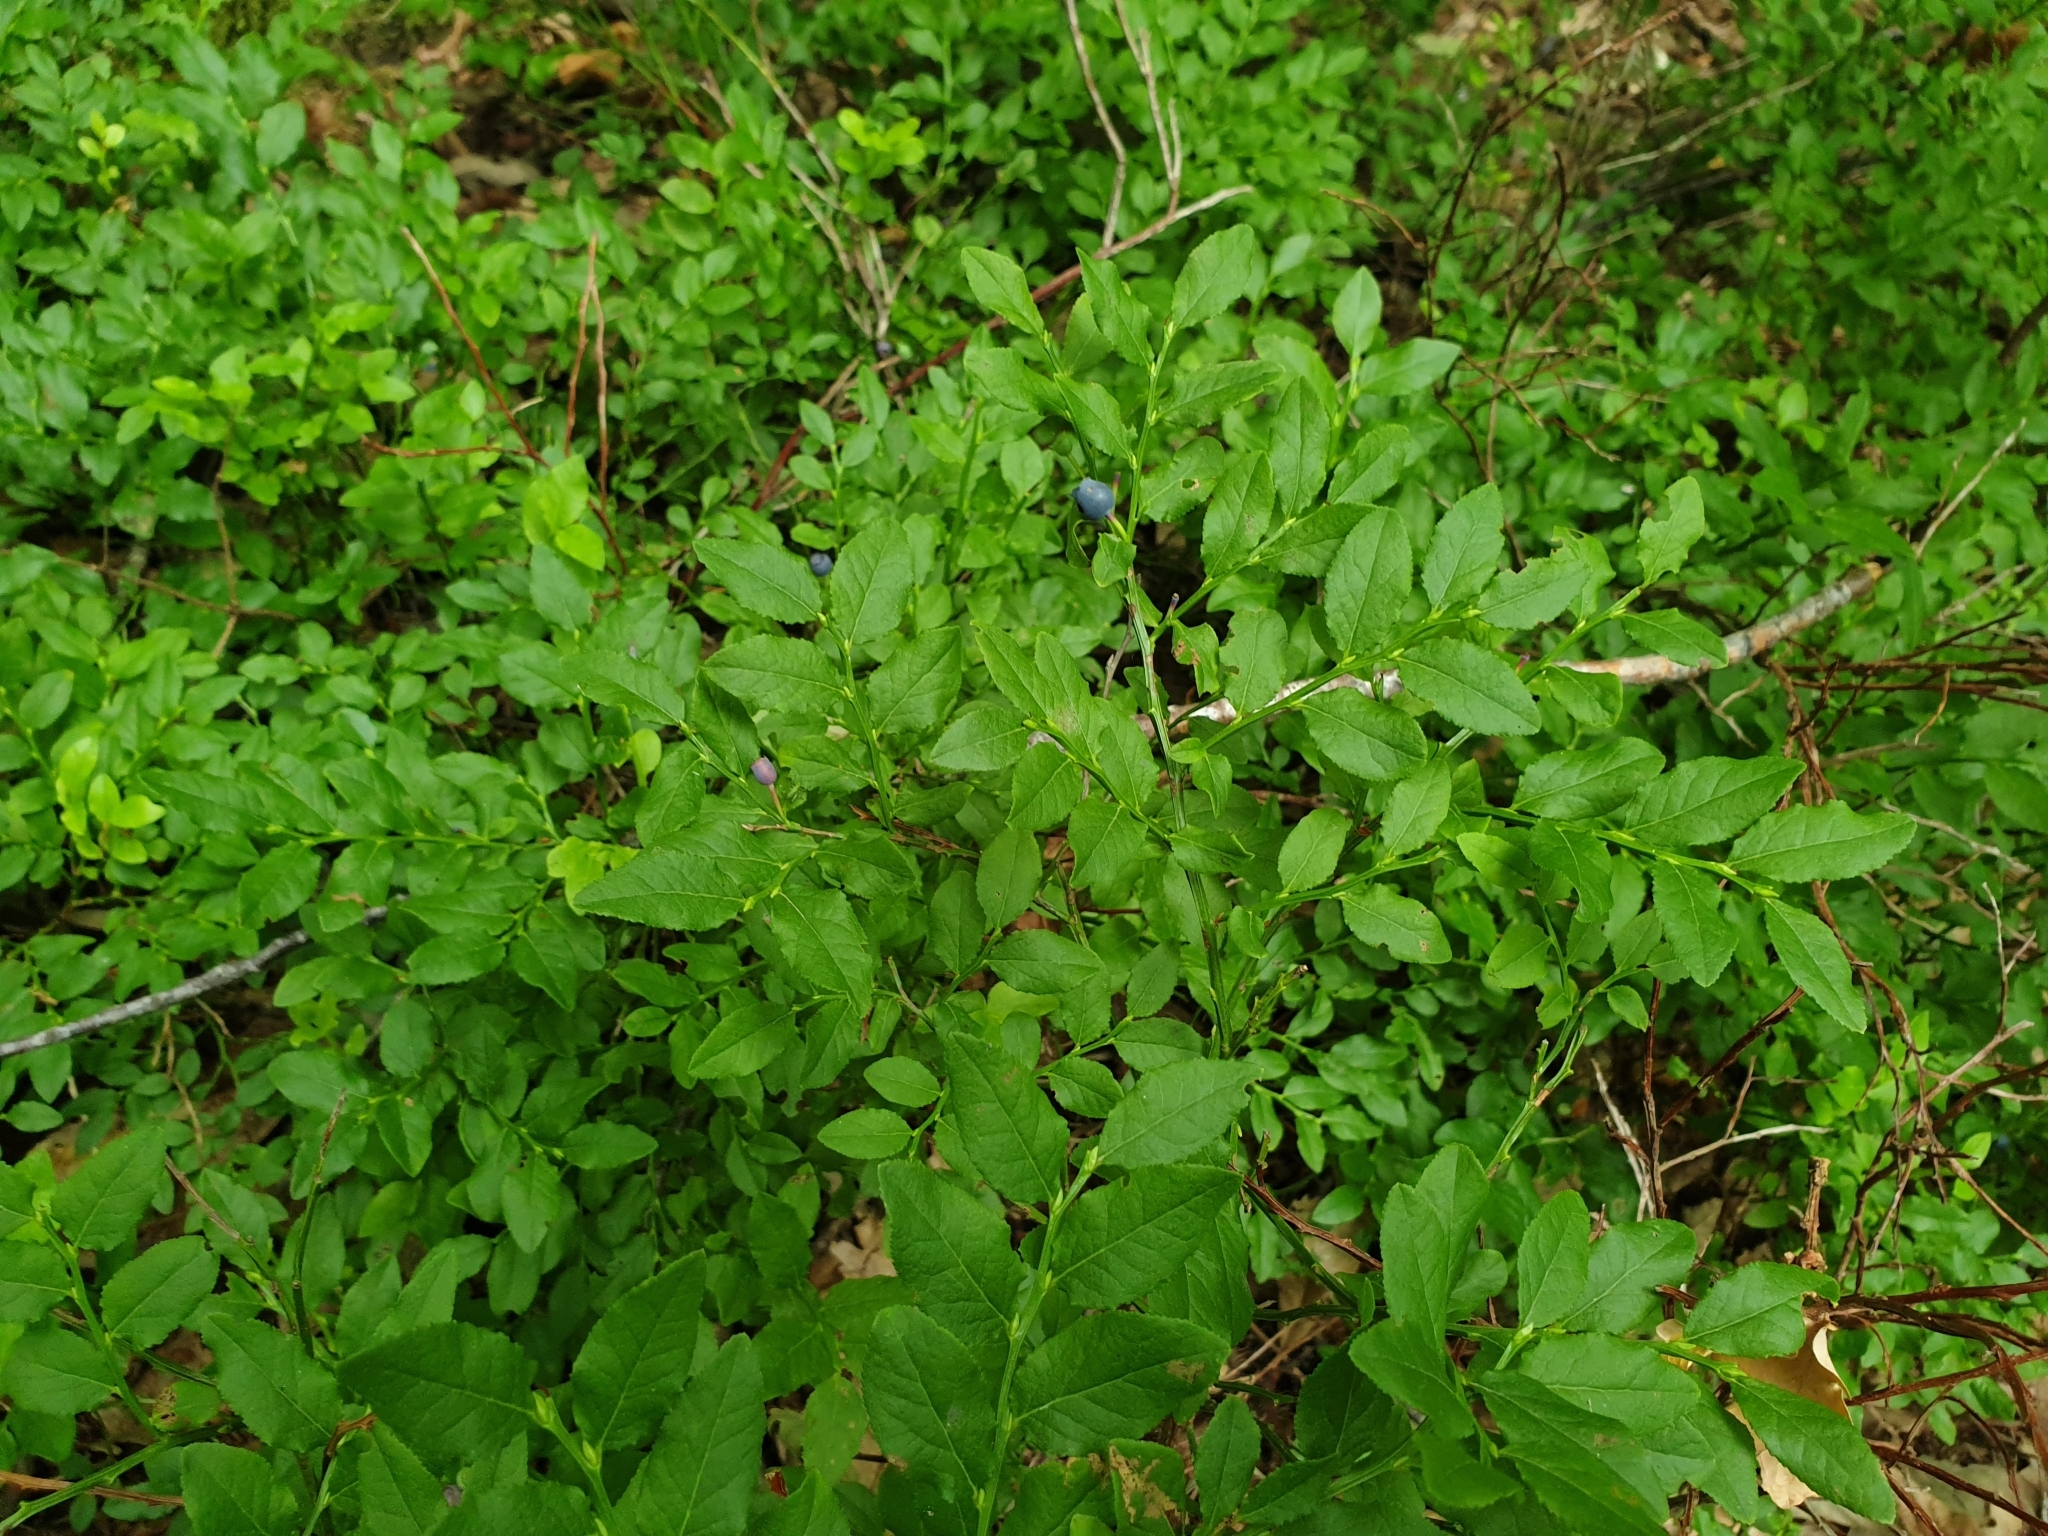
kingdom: Plantae
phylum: Tracheophyta
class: Magnoliopsida
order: Ericales
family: Ericaceae
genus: Vaccinium
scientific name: Vaccinium myrtillus
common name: Bilberry
